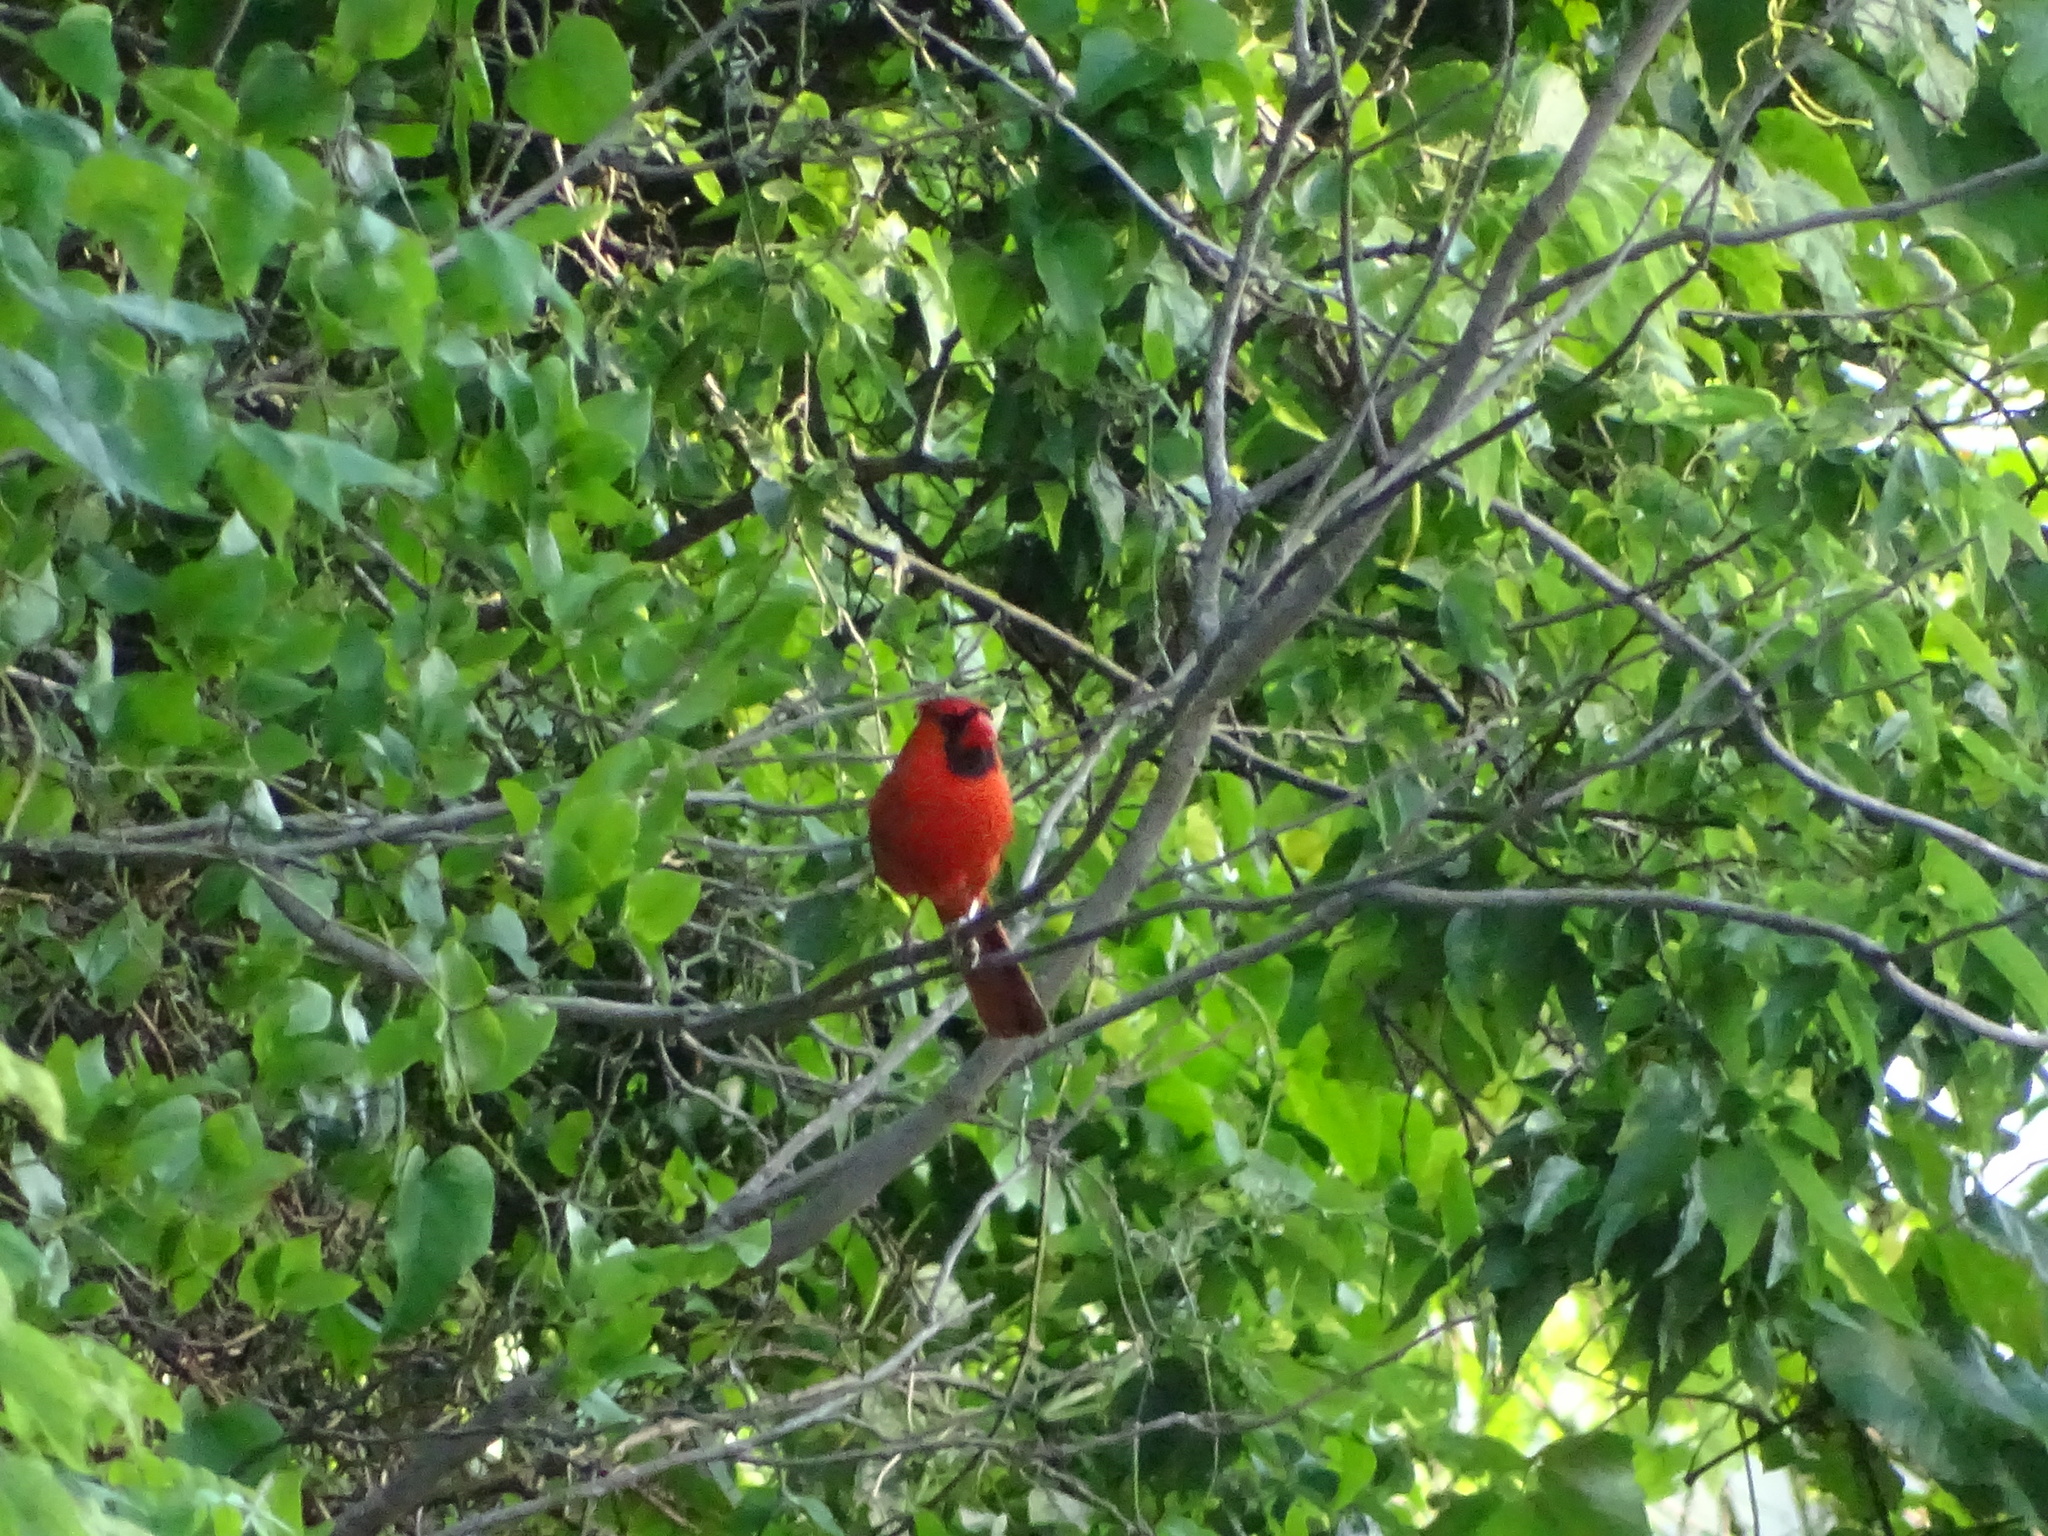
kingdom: Animalia
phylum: Chordata
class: Aves
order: Passeriformes
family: Cardinalidae
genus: Cardinalis
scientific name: Cardinalis cardinalis
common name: Northern cardinal
